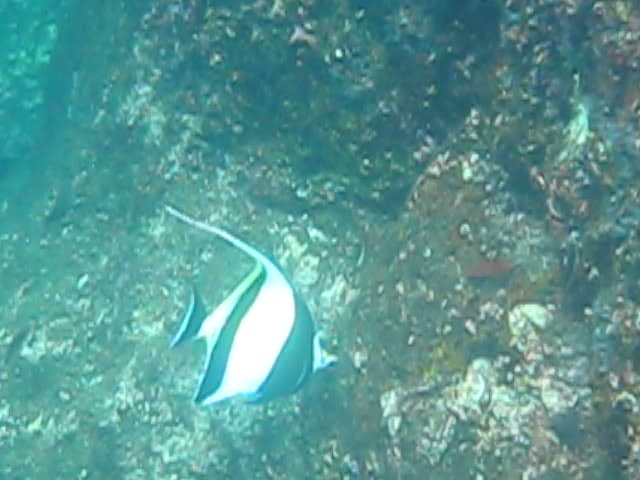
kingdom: Animalia
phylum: Chordata
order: Perciformes
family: Zanclidae
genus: Zanclus
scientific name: Zanclus cornutus
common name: Moorish idol
